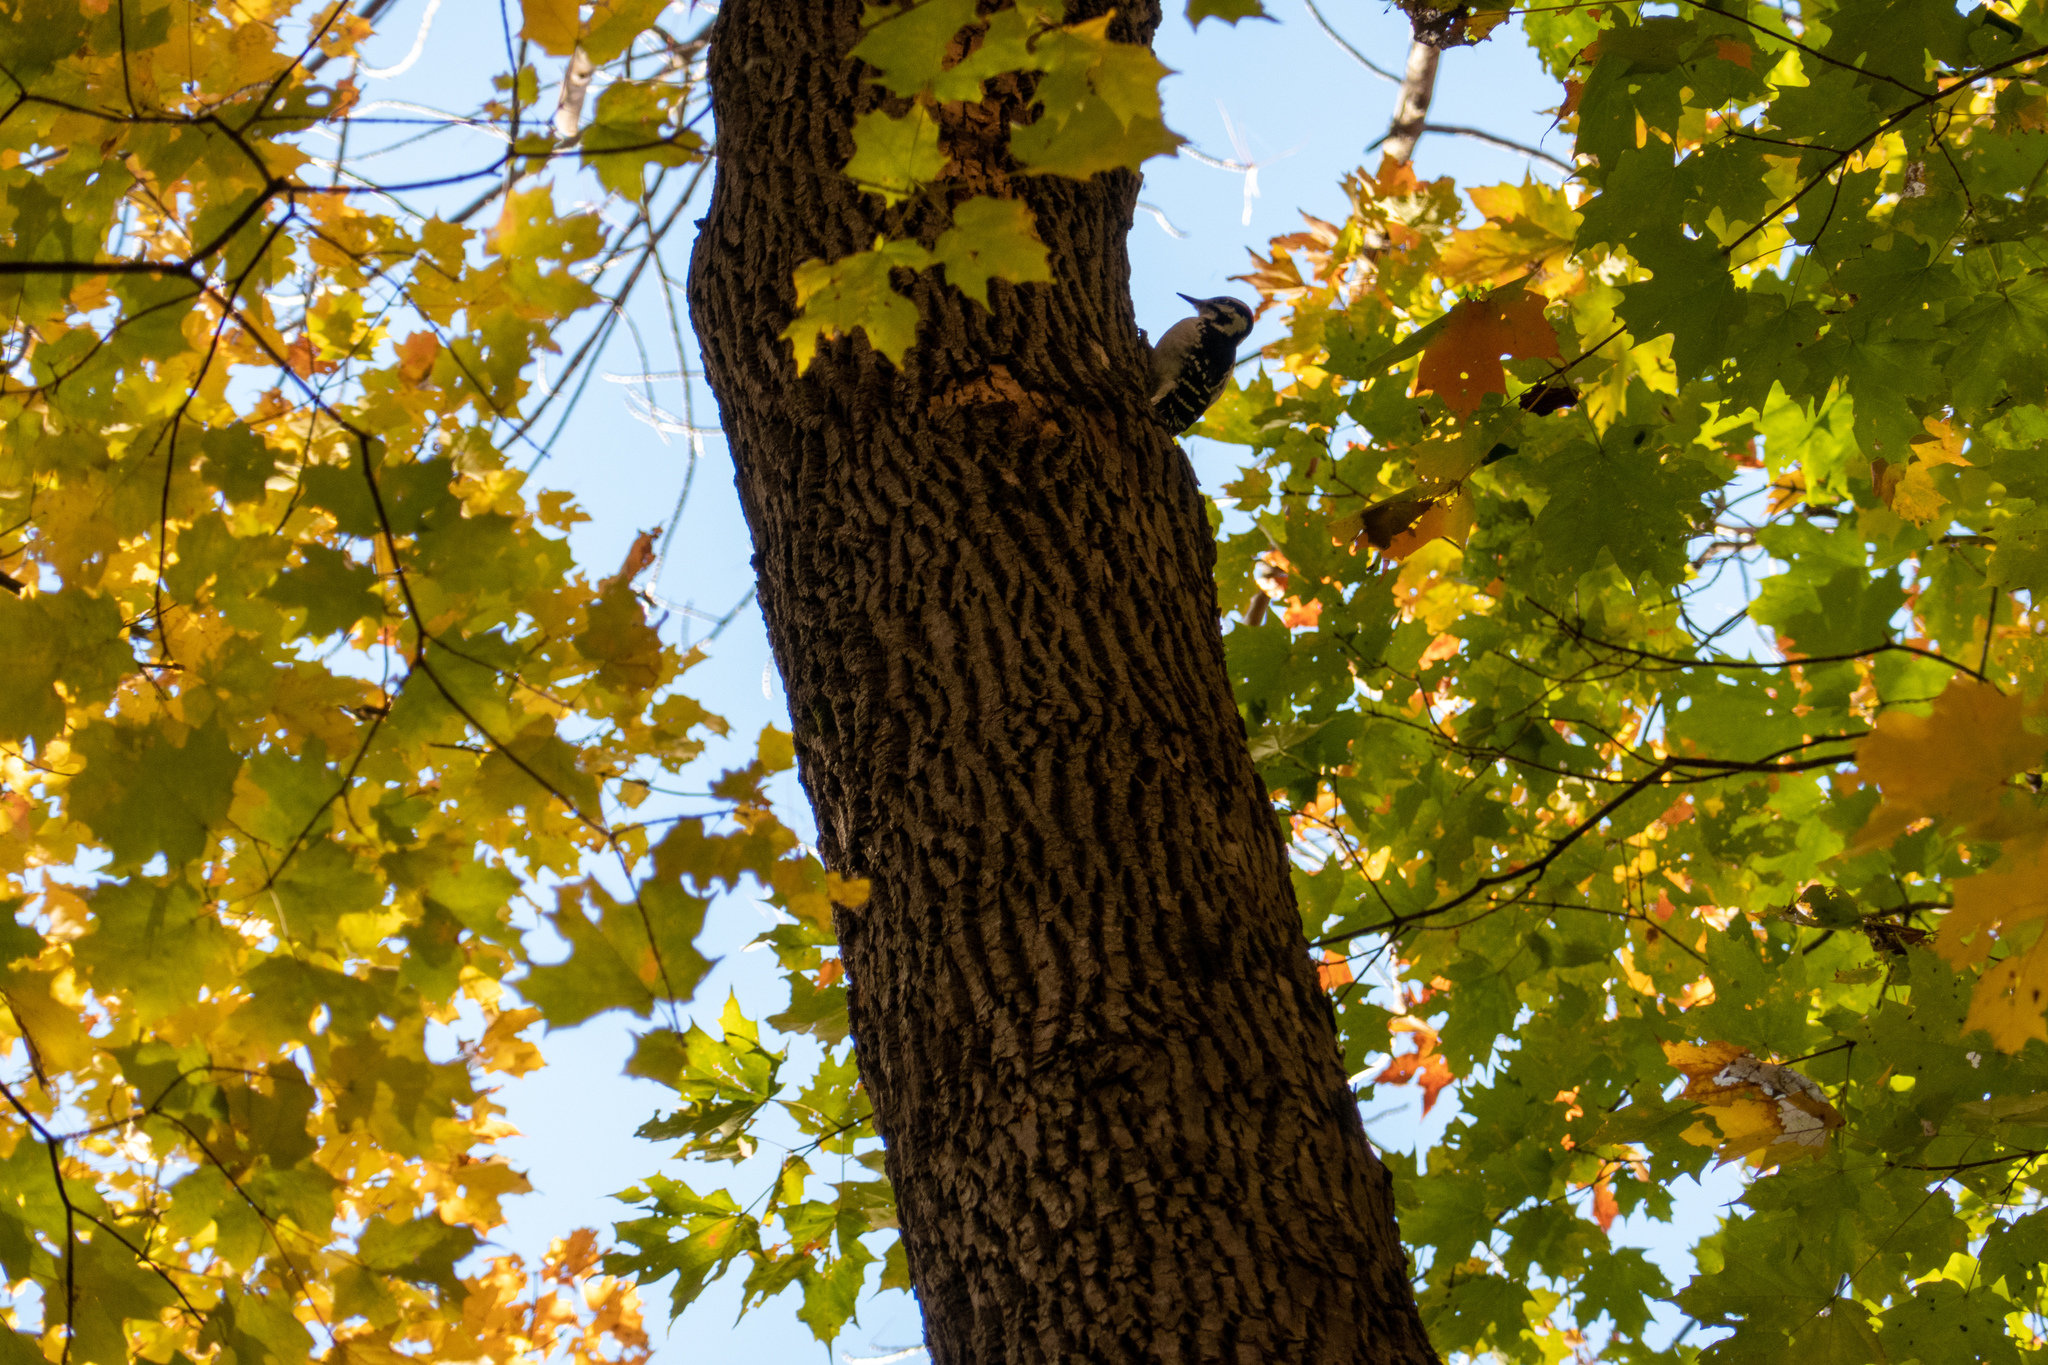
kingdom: Animalia
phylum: Chordata
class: Aves
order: Piciformes
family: Picidae
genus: Leuconotopicus
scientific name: Leuconotopicus villosus
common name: Hairy woodpecker
